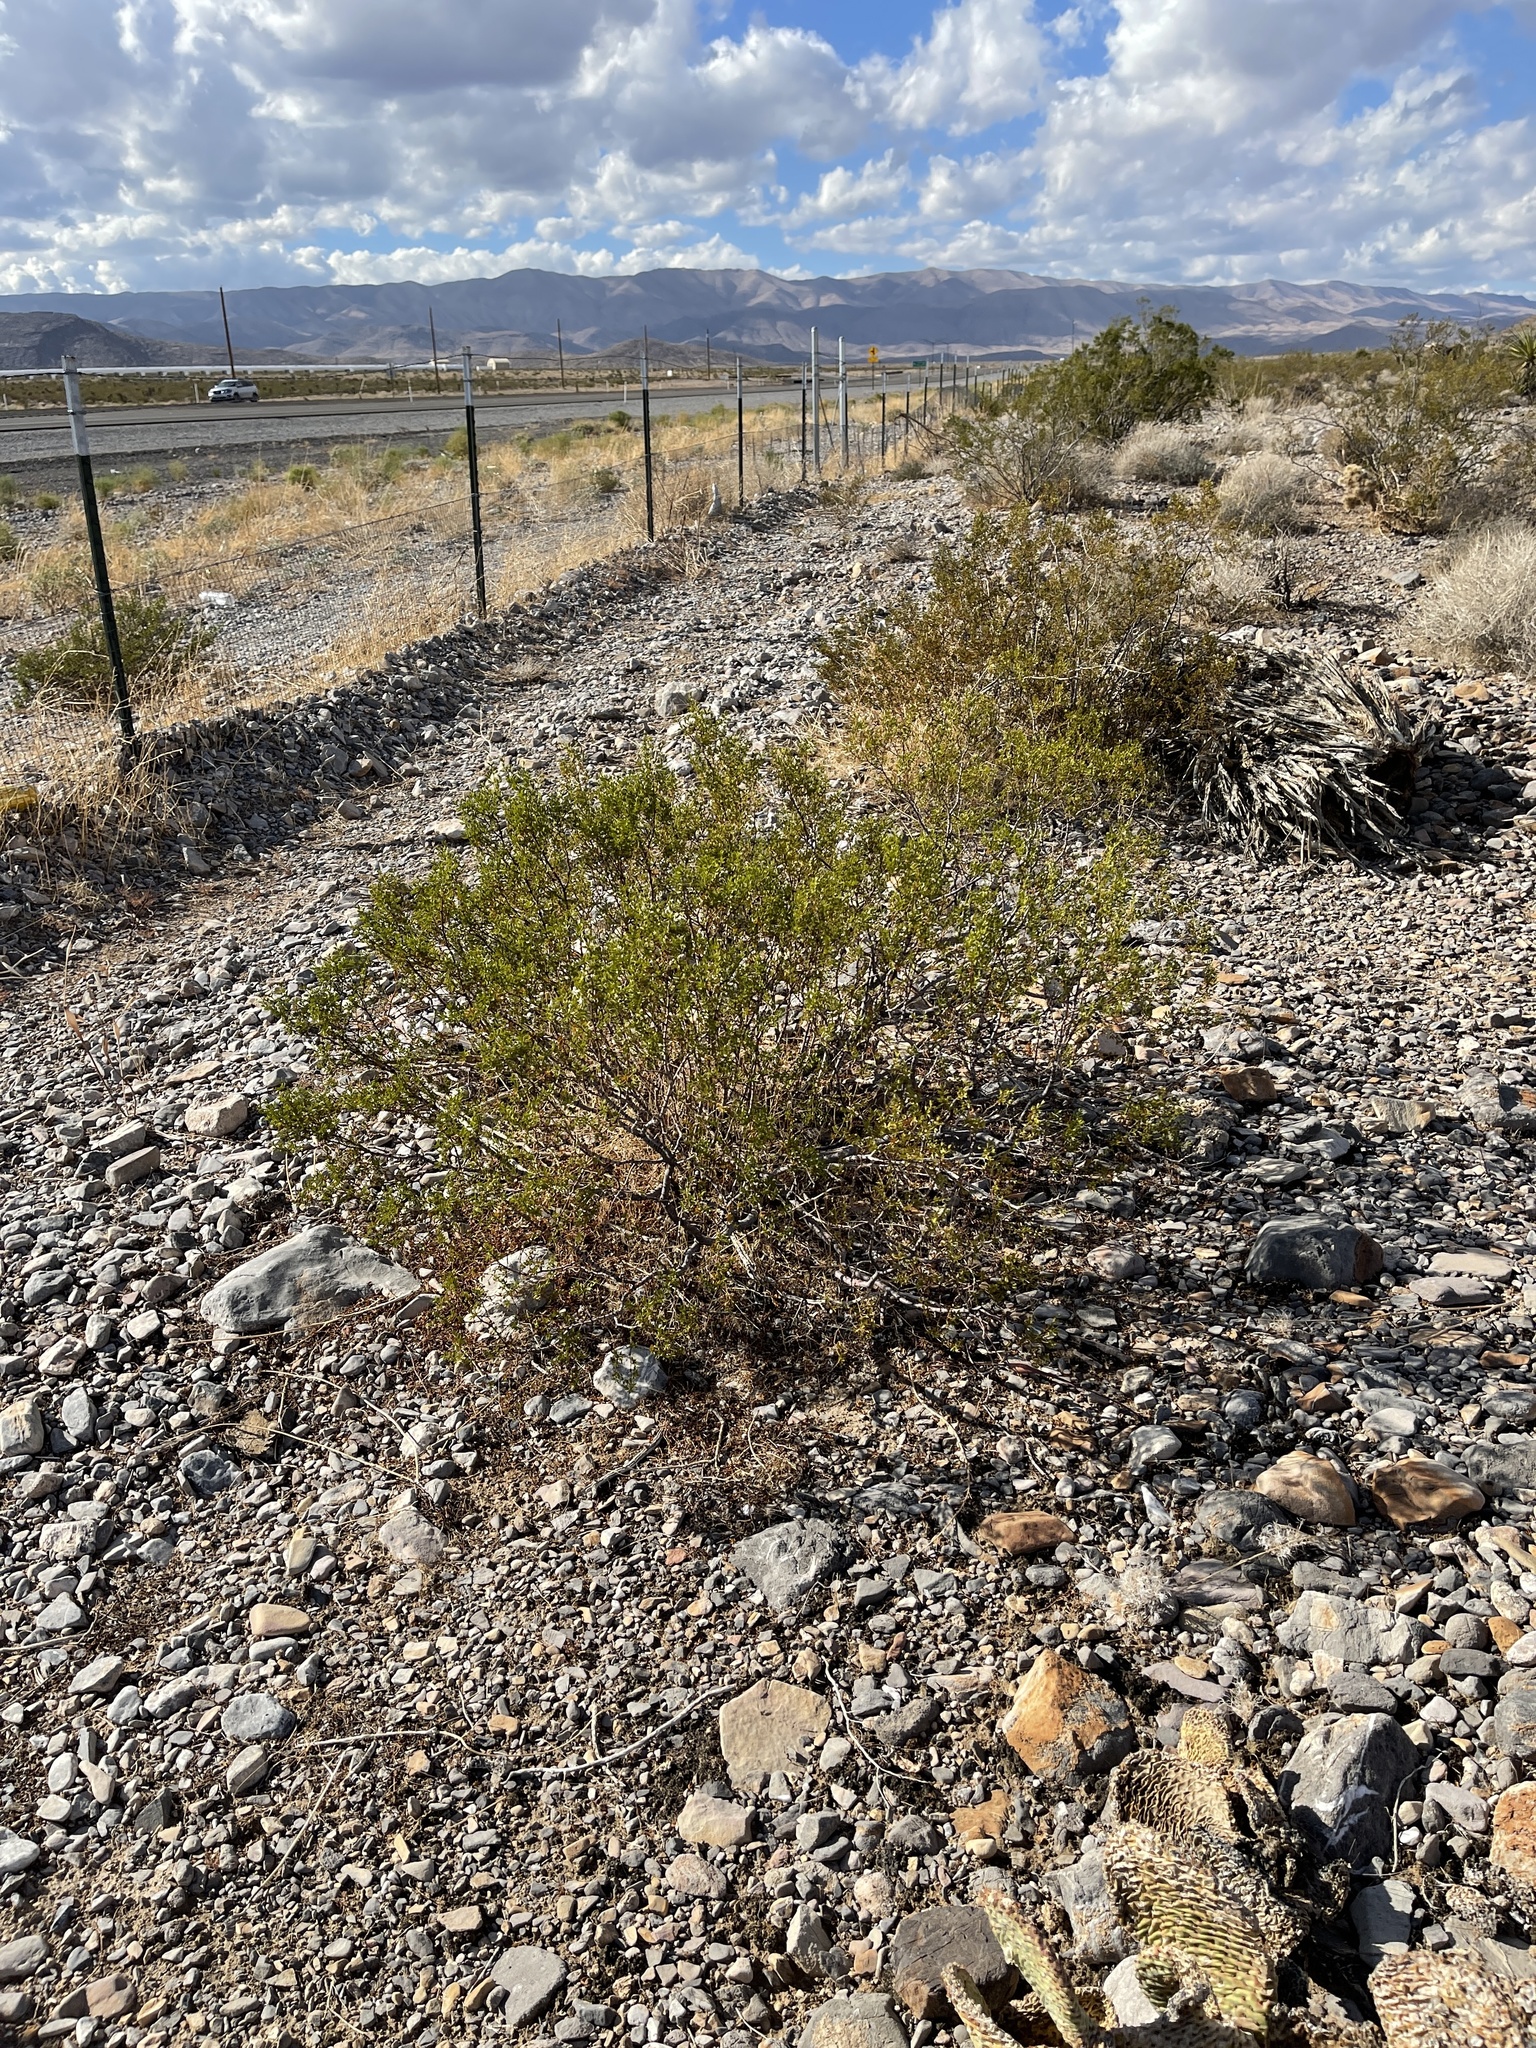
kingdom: Plantae
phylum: Tracheophyta
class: Magnoliopsida
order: Zygophyllales
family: Zygophyllaceae
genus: Larrea
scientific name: Larrea tridentata
